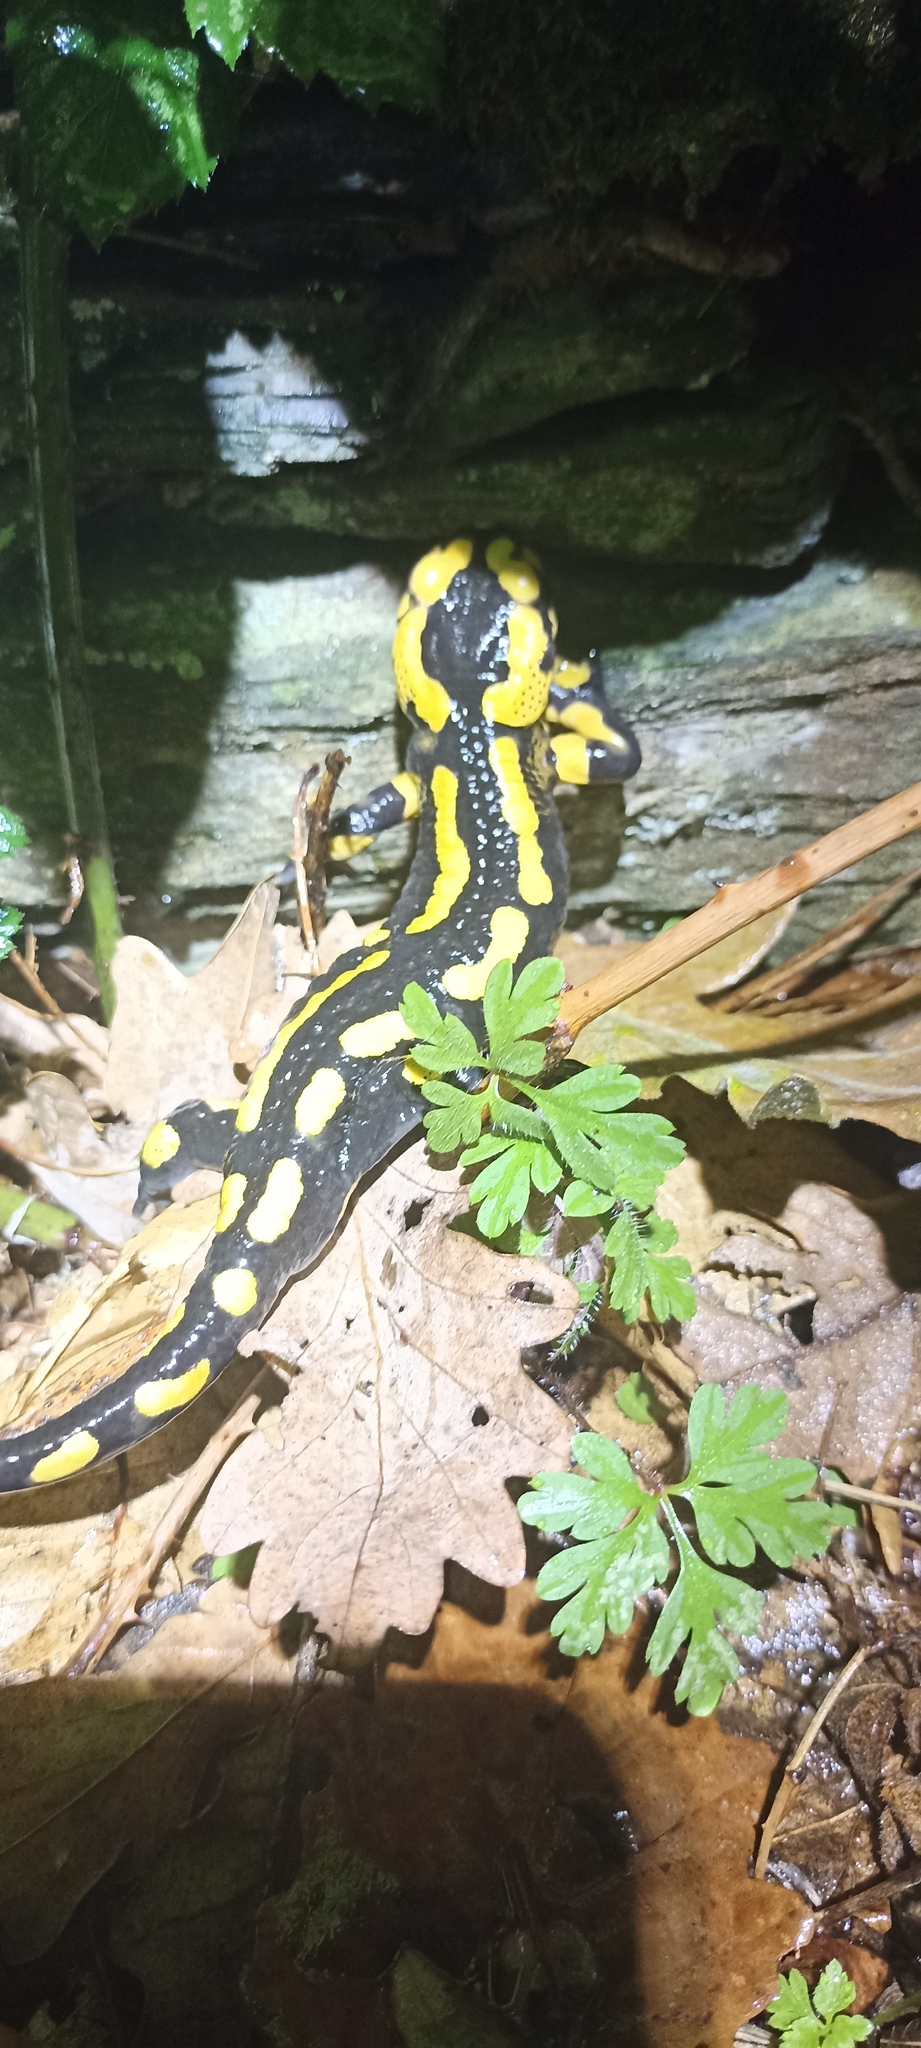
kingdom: Animalia
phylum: Chordata
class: Amphibia
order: Caudata
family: Salamandridae
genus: Salamandra
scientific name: Salamandra salamandra
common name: Fire salamander
